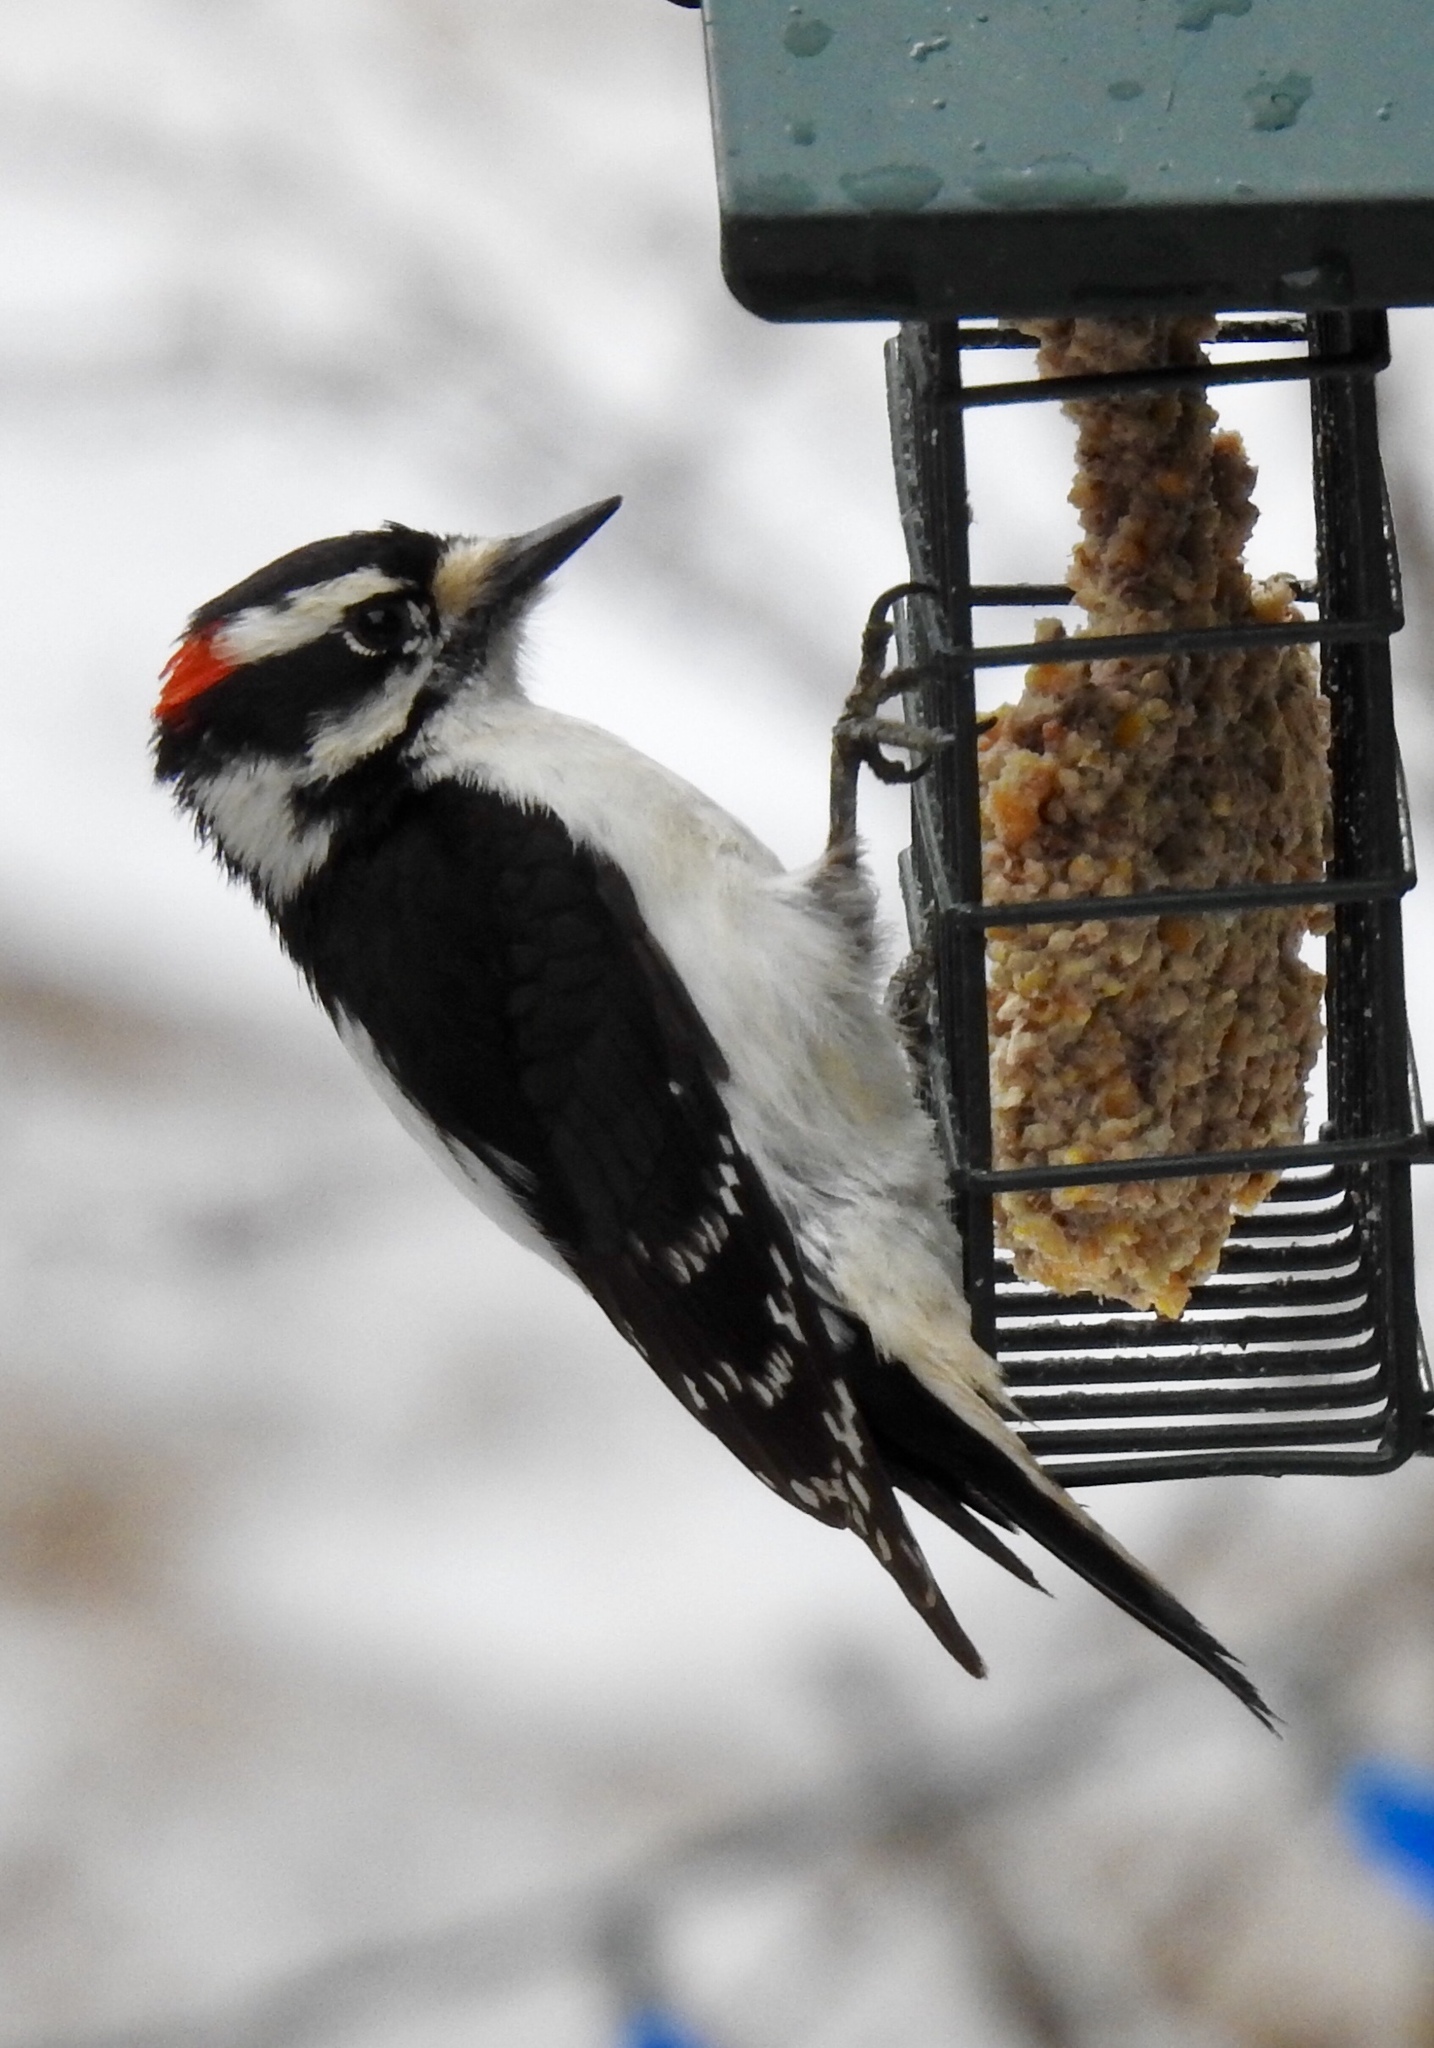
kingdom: Animalia
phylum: Chordata
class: Aves
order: Piciformes
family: Picidae
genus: Dryobates
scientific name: Dryobates pubescens
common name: Downy woodpecker
